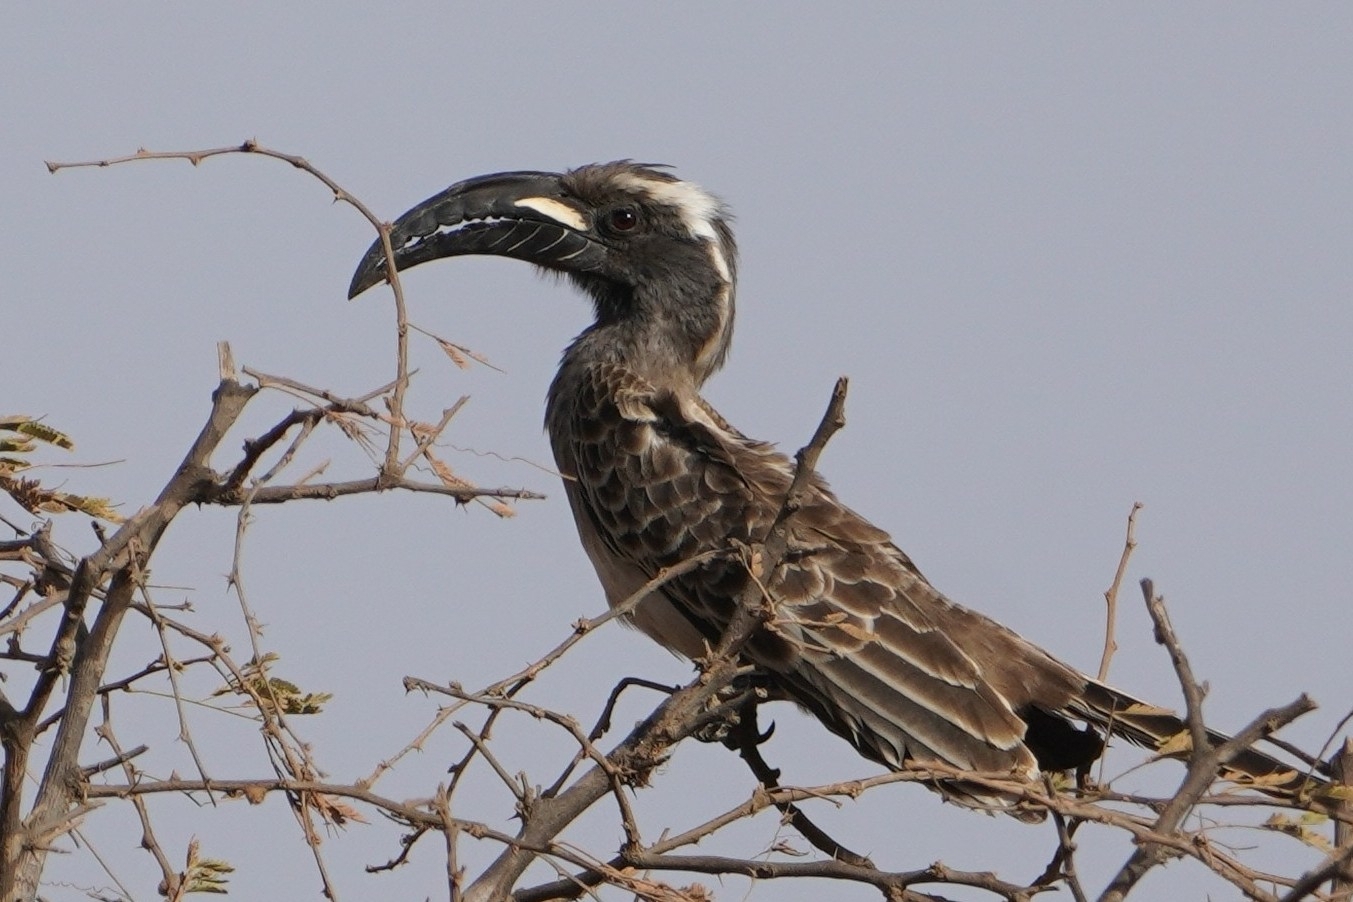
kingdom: Animalia
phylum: Chordata
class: Aves
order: Bucerotiformes
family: Bucerotidae
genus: Lophoceros
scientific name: Lophoceros nasutus
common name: African grey hornbill
